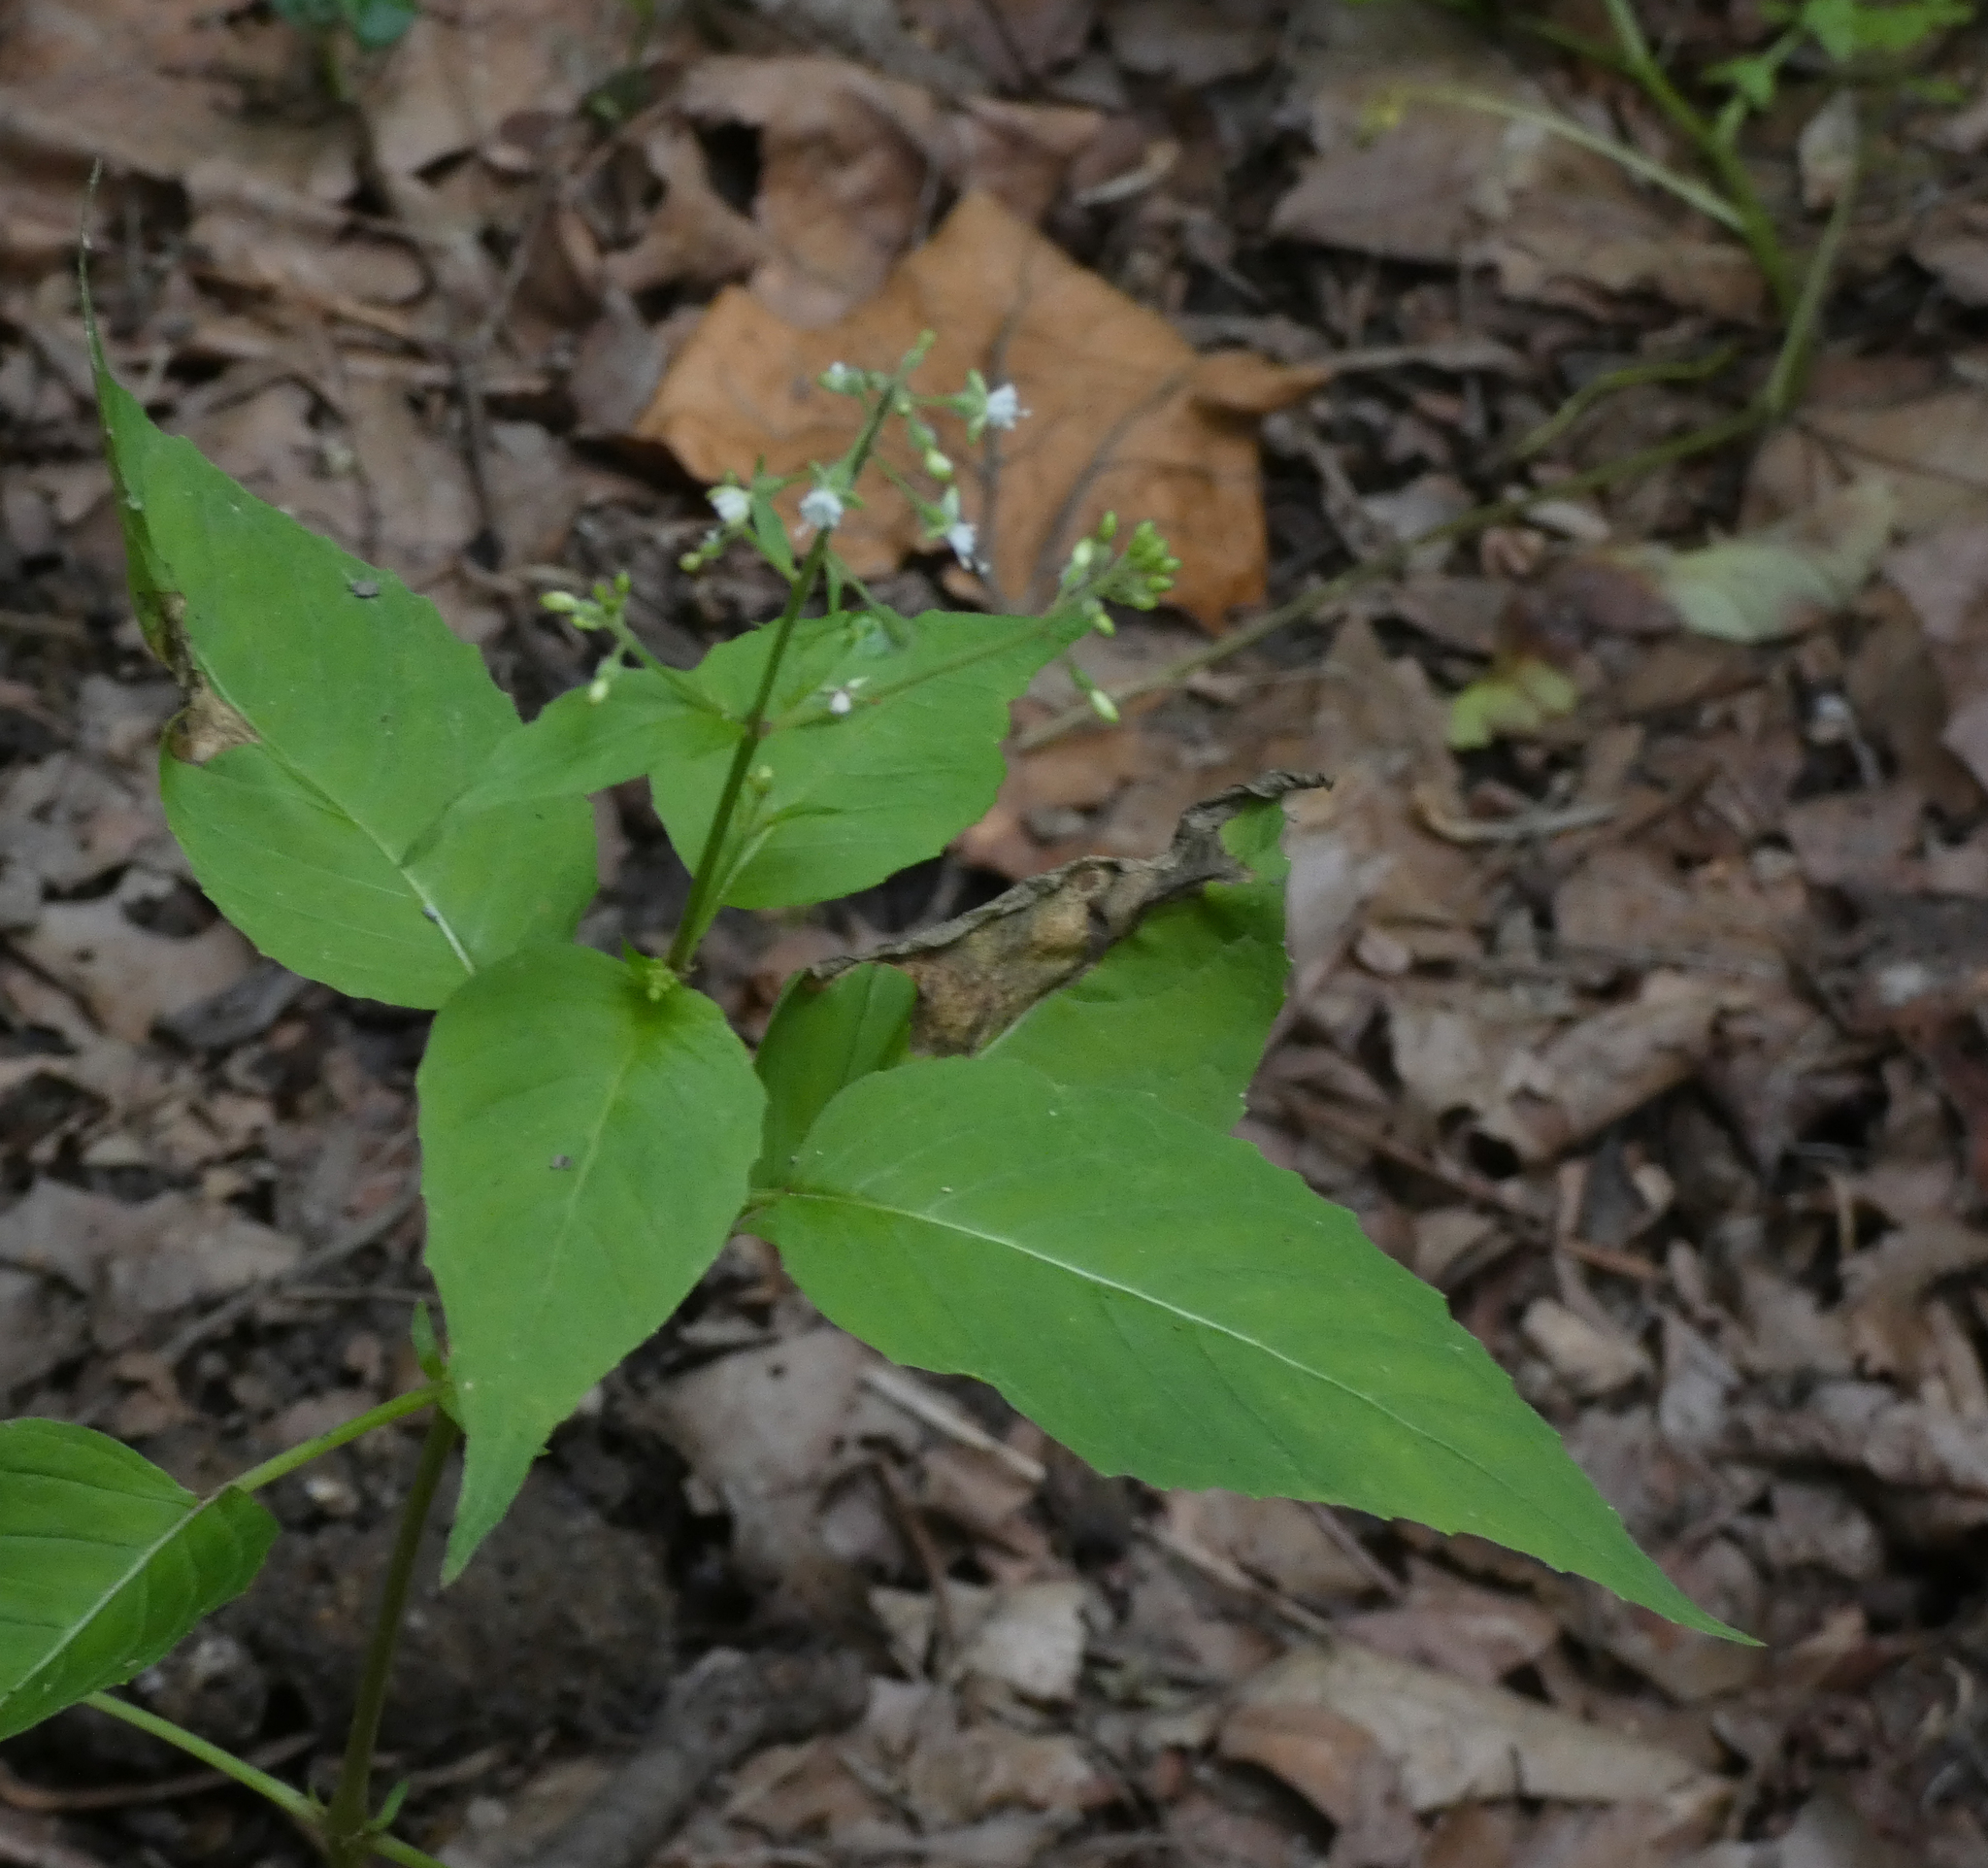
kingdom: Plantae
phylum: Tracheophyta
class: Magnoliopsida
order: Myrtales
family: Onagraceae
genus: Circaea
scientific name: Circaea canadensis
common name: Broad-leaved enchanter's nightshade
